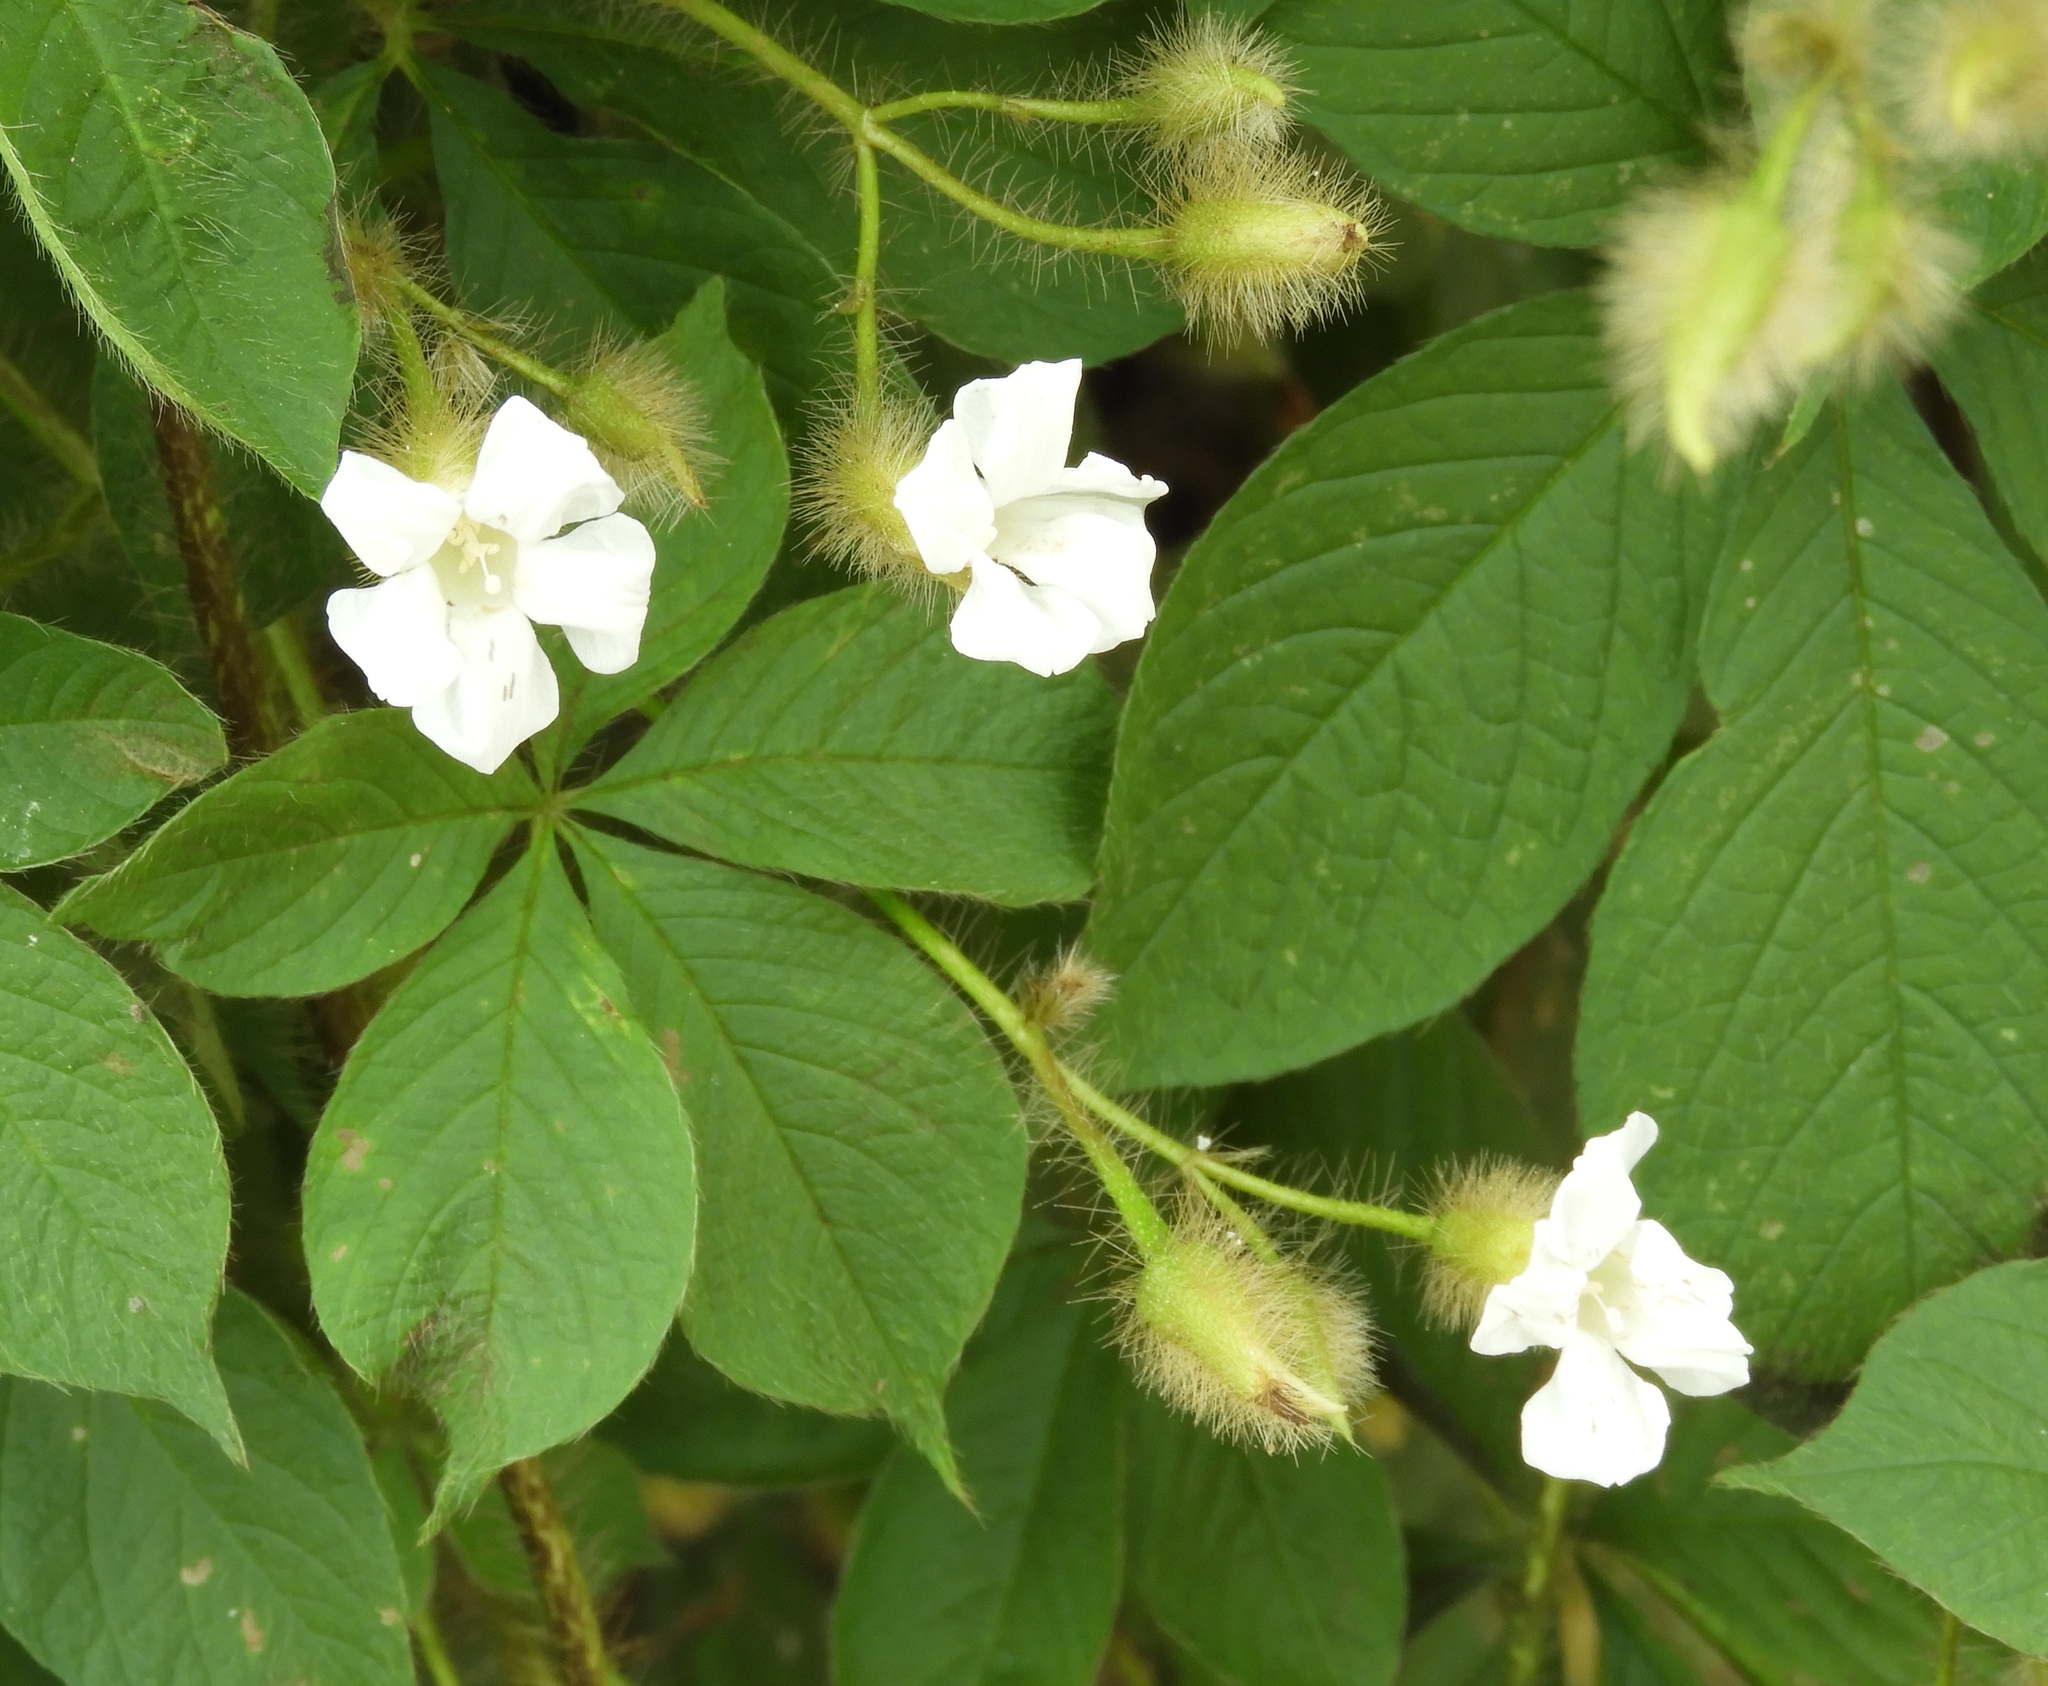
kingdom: Plantae
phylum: Tracheophyta
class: Magnoliopsida
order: Solanales
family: Convolvulaceae
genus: Distimake
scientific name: Distimake aegyptius
